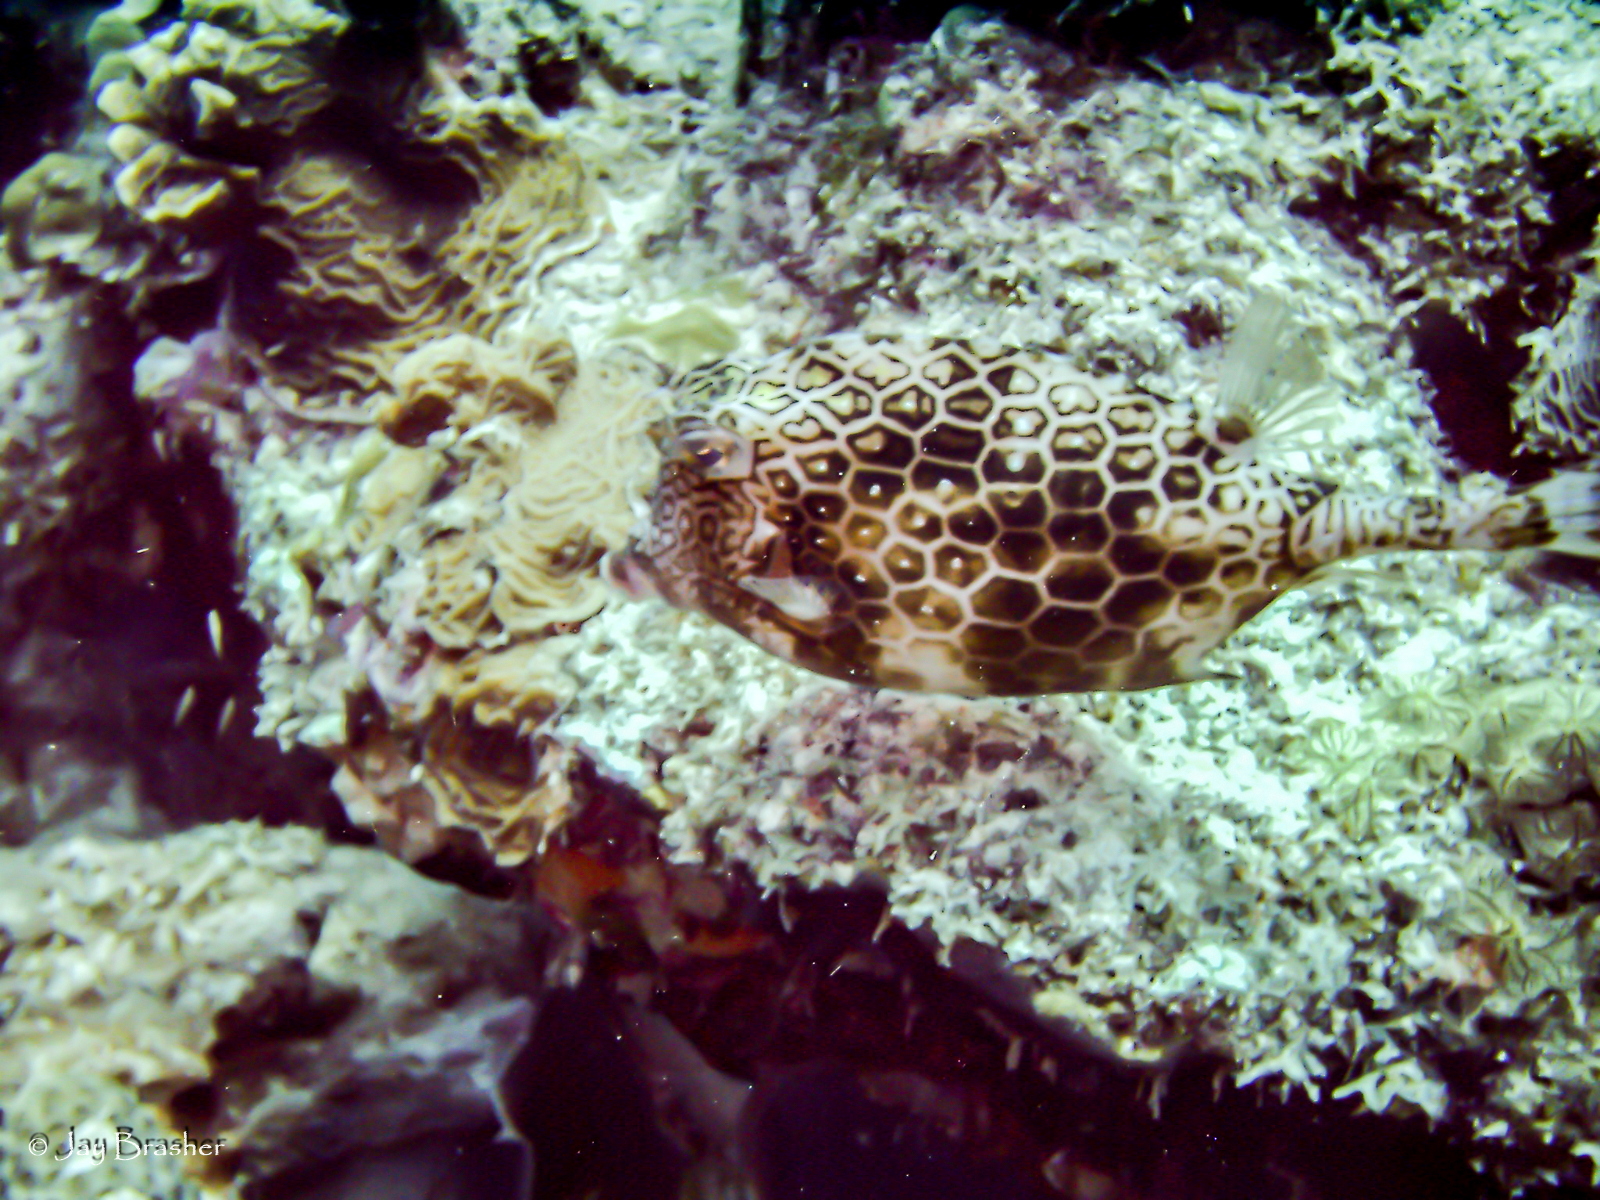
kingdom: Animalia
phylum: Chordata
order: Tetraodontiformes
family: Ostraciidae
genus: Acanthostracion
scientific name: Acanthostracion polygonius
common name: Honeycomb cowfish
